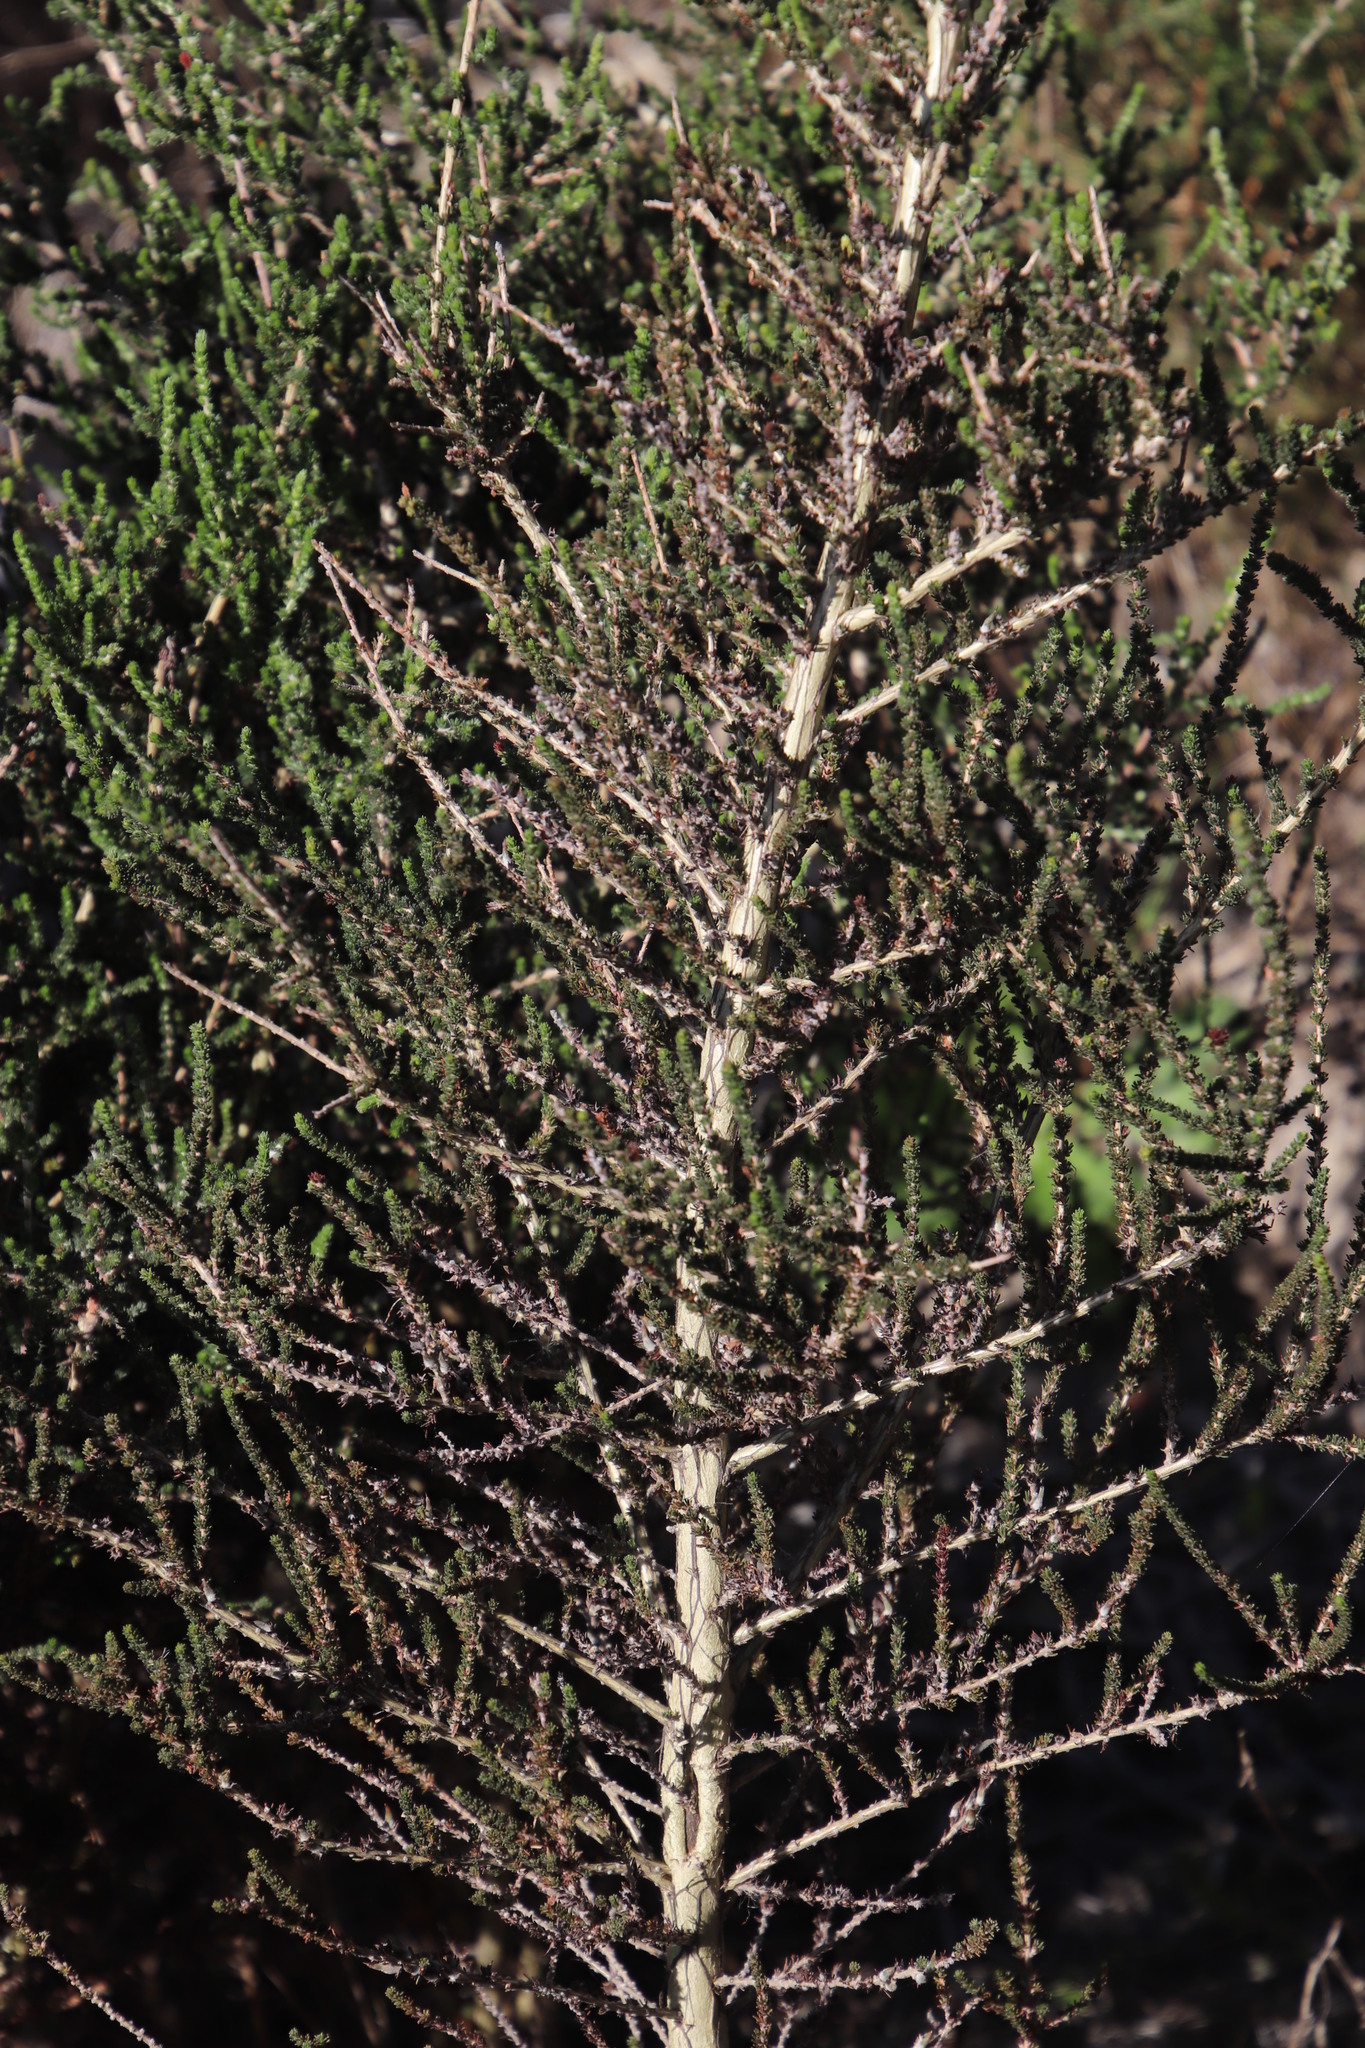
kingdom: Plantae
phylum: Tracheophyta
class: Magnoliopsida
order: Fabales
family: Fabaceae
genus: Aspalathus
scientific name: Aspalathus hispida
